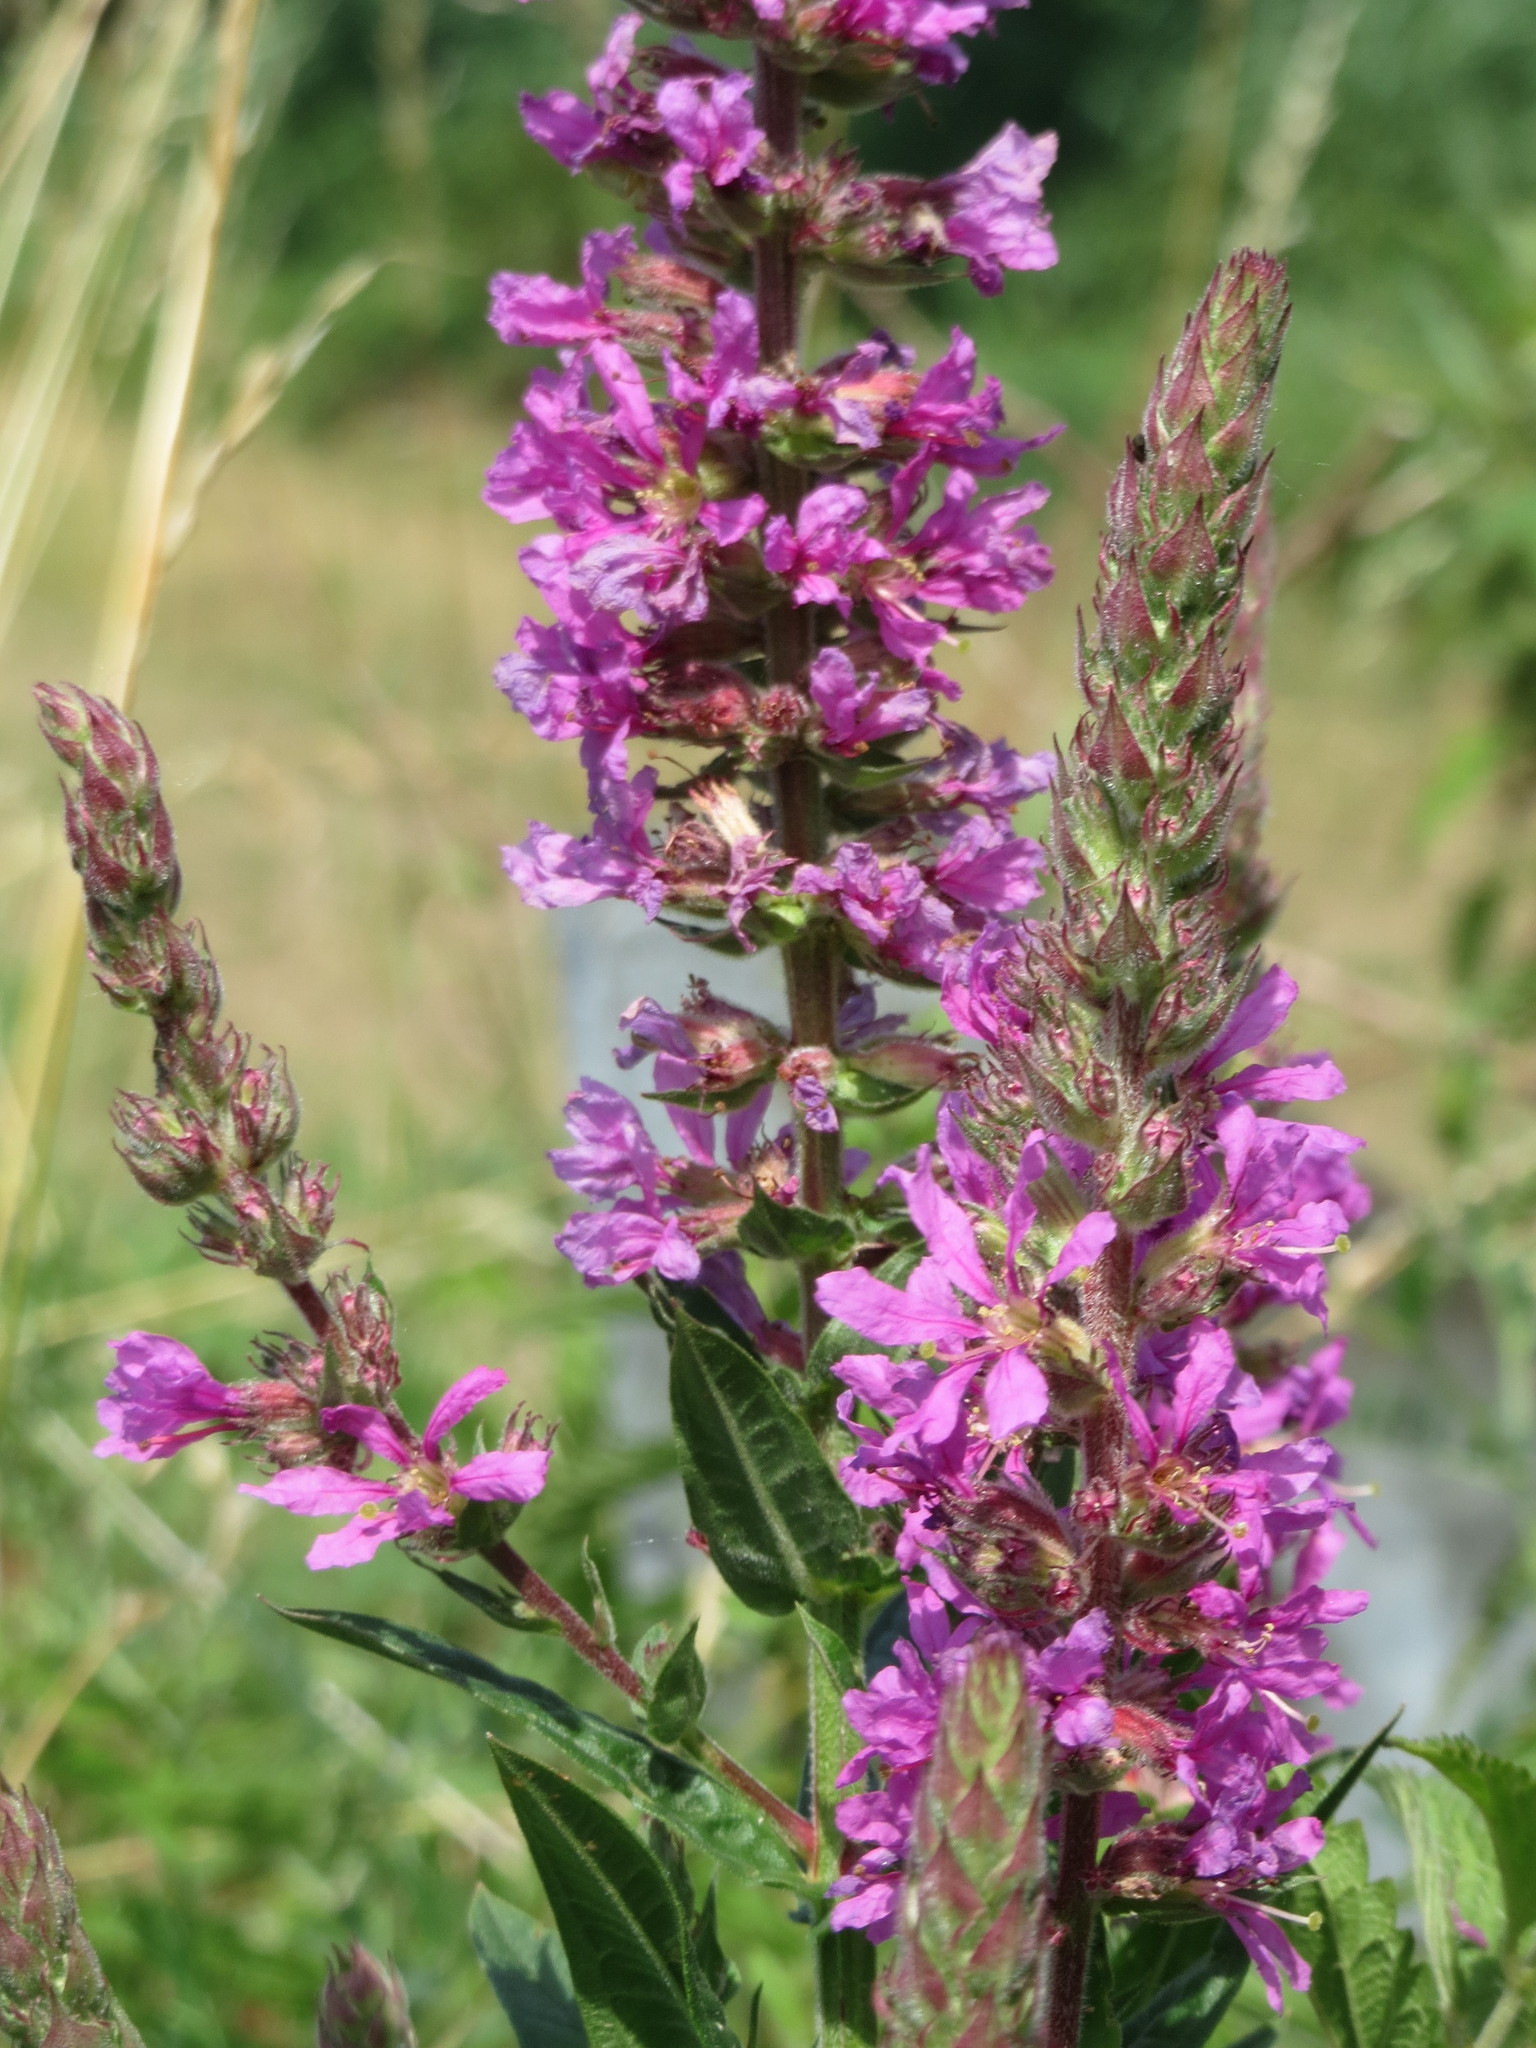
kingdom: Plantae
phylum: Tracheophyta
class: Magnoliopsida
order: Myrtales
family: Lythraceae
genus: Lythrum
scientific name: Lythrum salicaria
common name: Purple loosestrife
